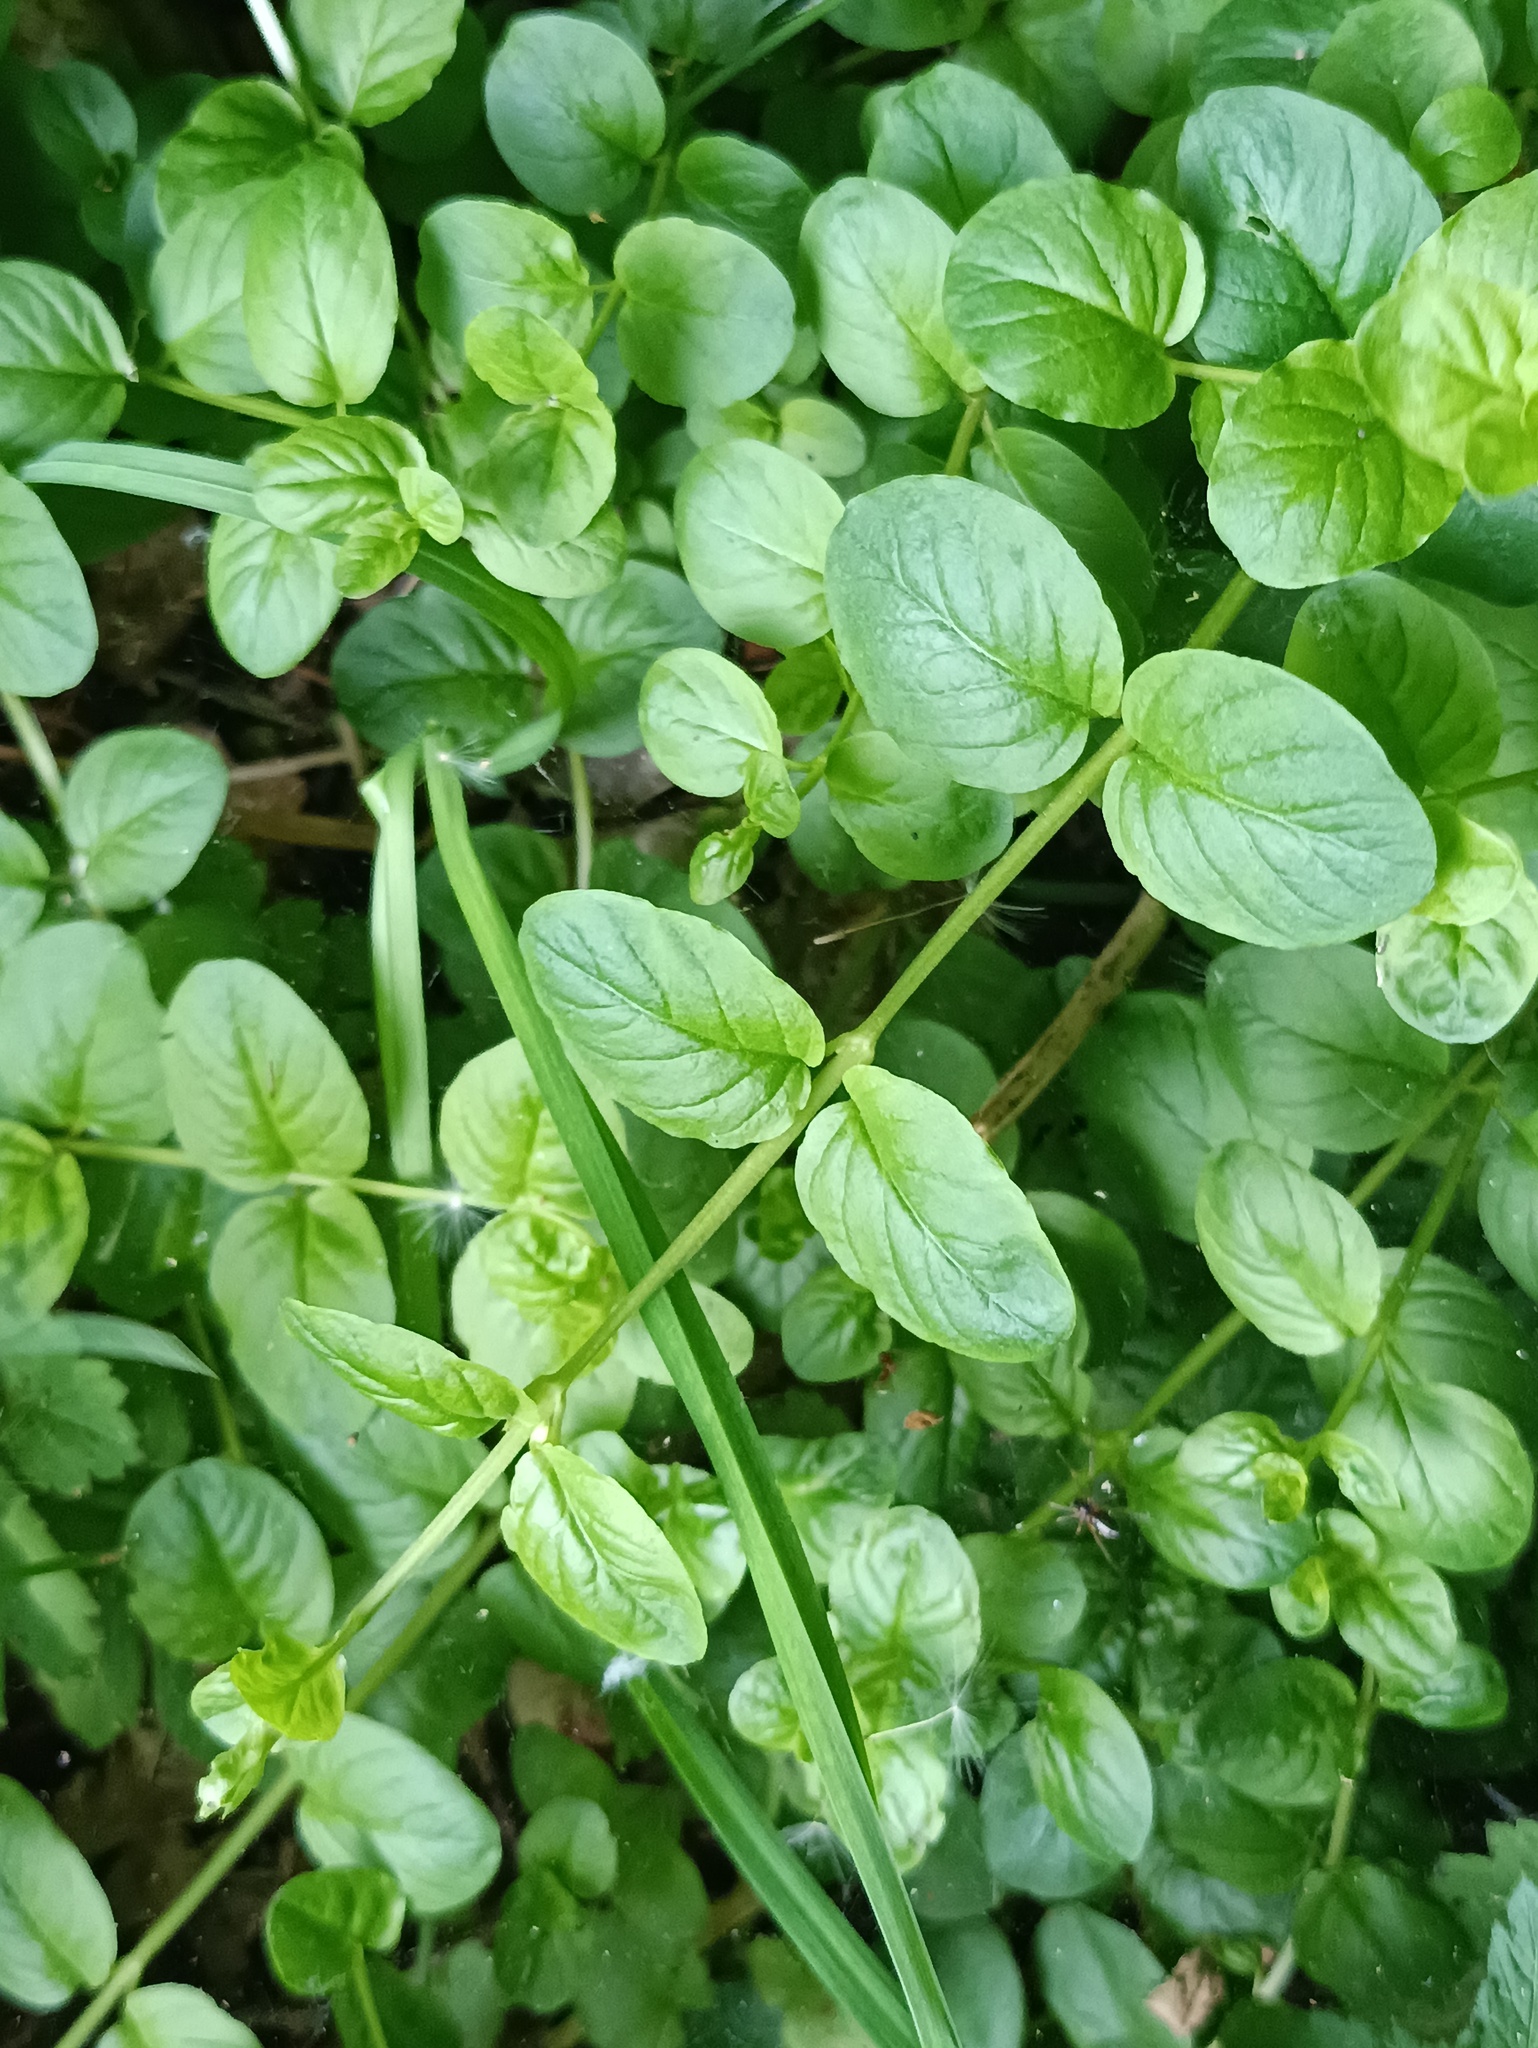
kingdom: Plantae
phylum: Tracheophyta
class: Magnoliopsida
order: Ericales
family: Primulaceae
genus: Lysimachia
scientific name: Lysimachia nummularia
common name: Moneywort
